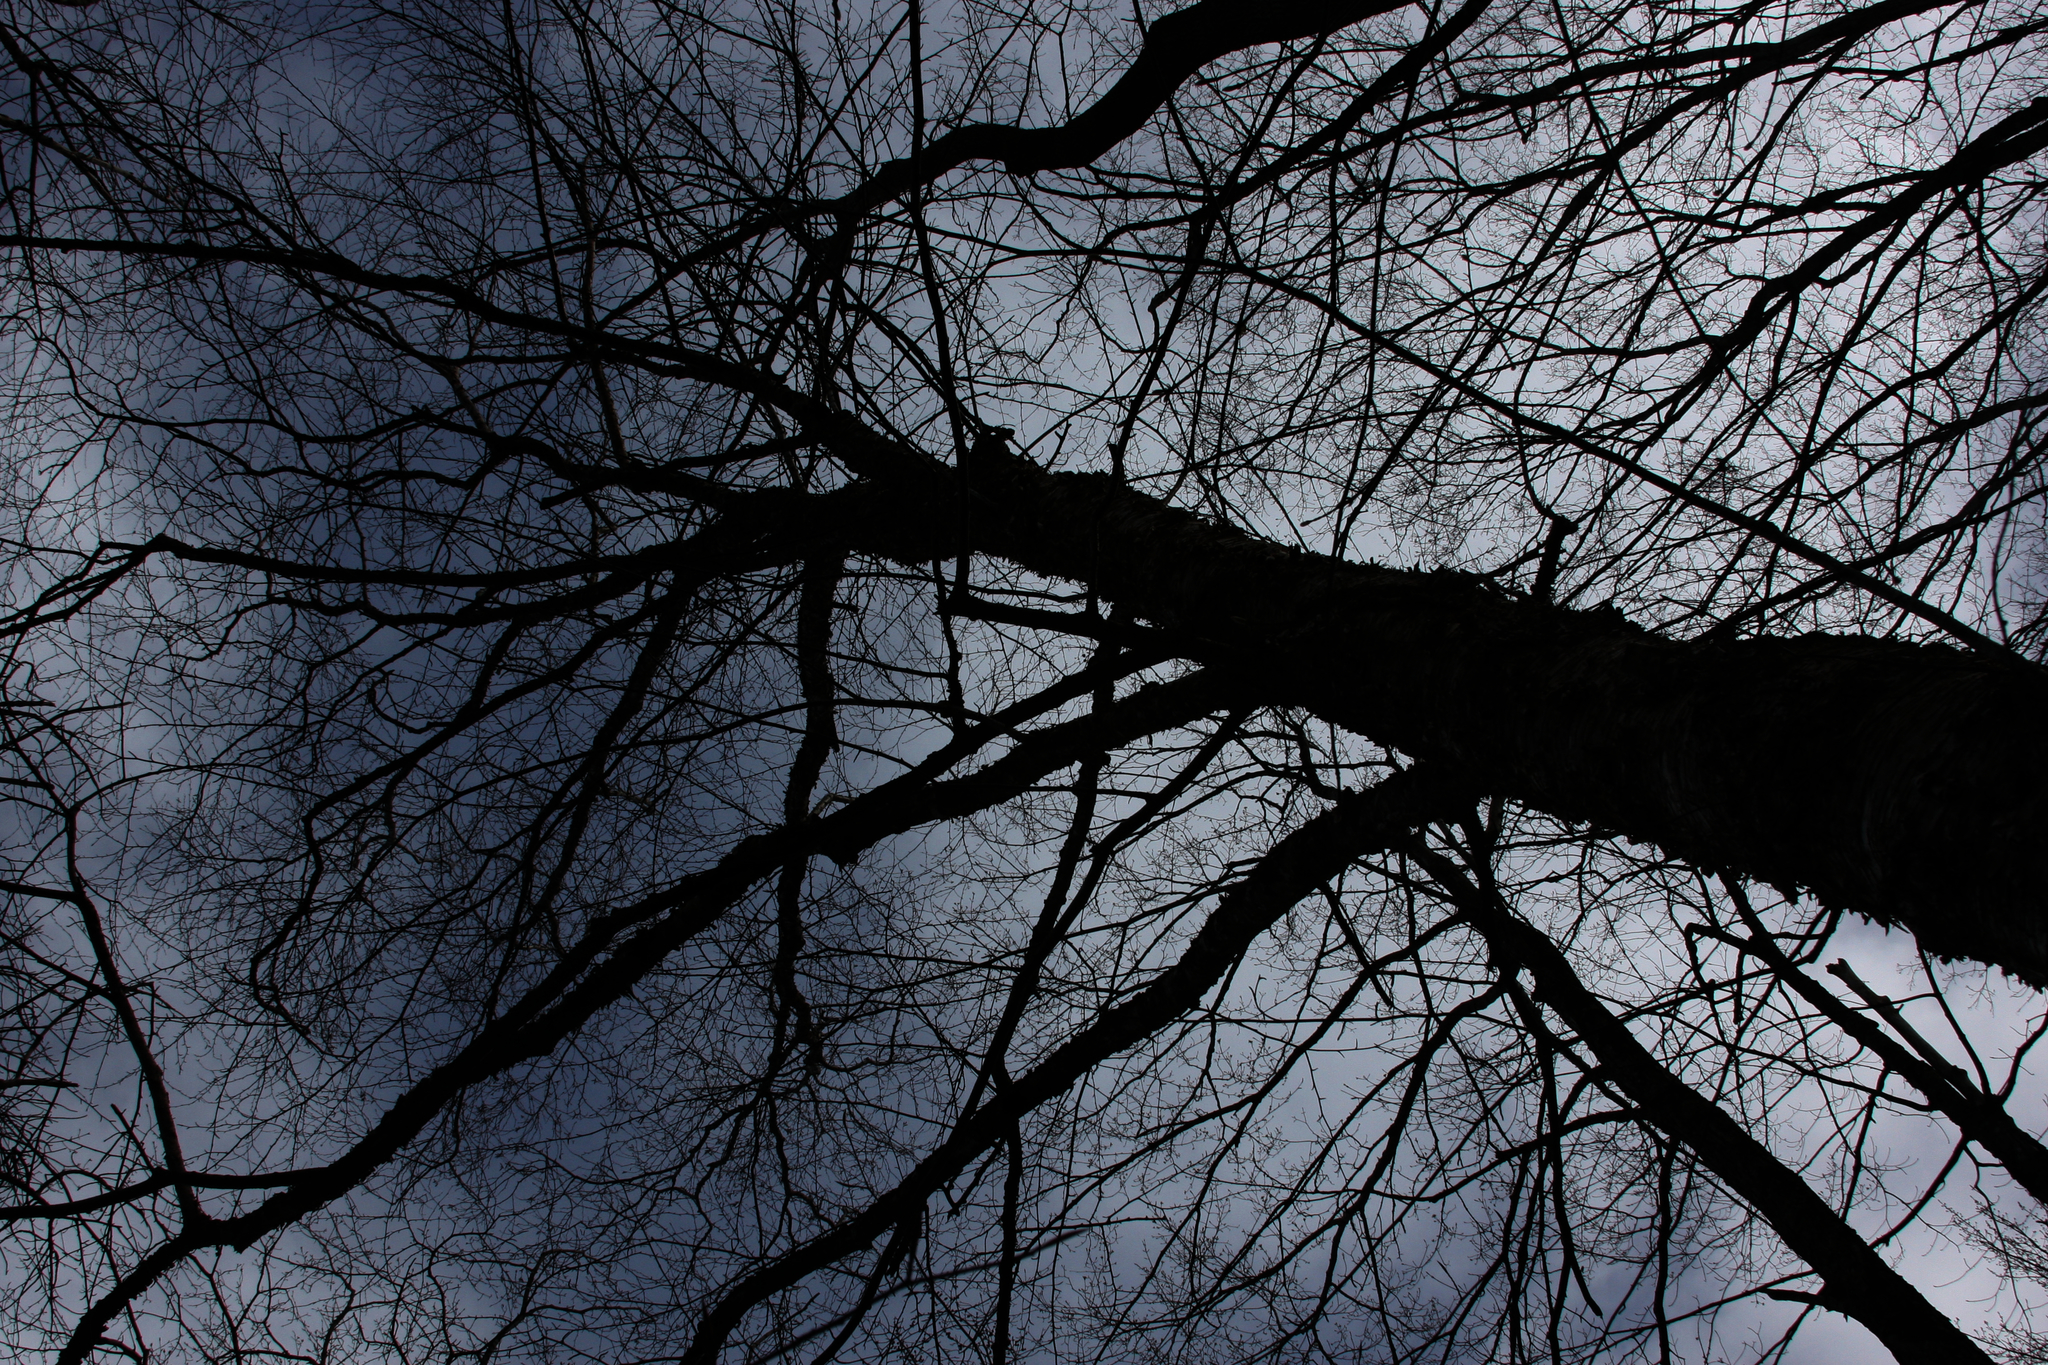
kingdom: Plantae
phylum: Tracheophyta
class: Magnoliopsida
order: Fagales
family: Betulaceae
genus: Betula
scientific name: Betula alleghaniensis
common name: Yellow birch
